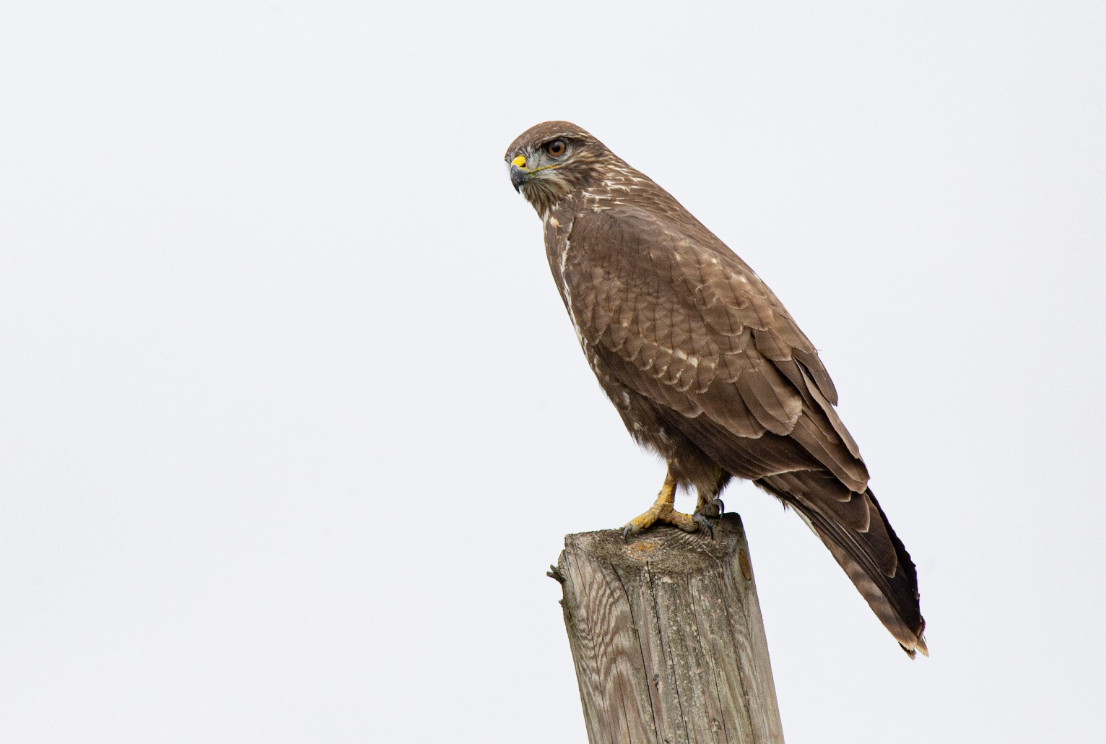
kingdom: Animalia
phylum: Chordata
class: Aves
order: Accipitriformes
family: Accipitridae
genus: Buteo
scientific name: Buteo buteo
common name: Common buzzard
